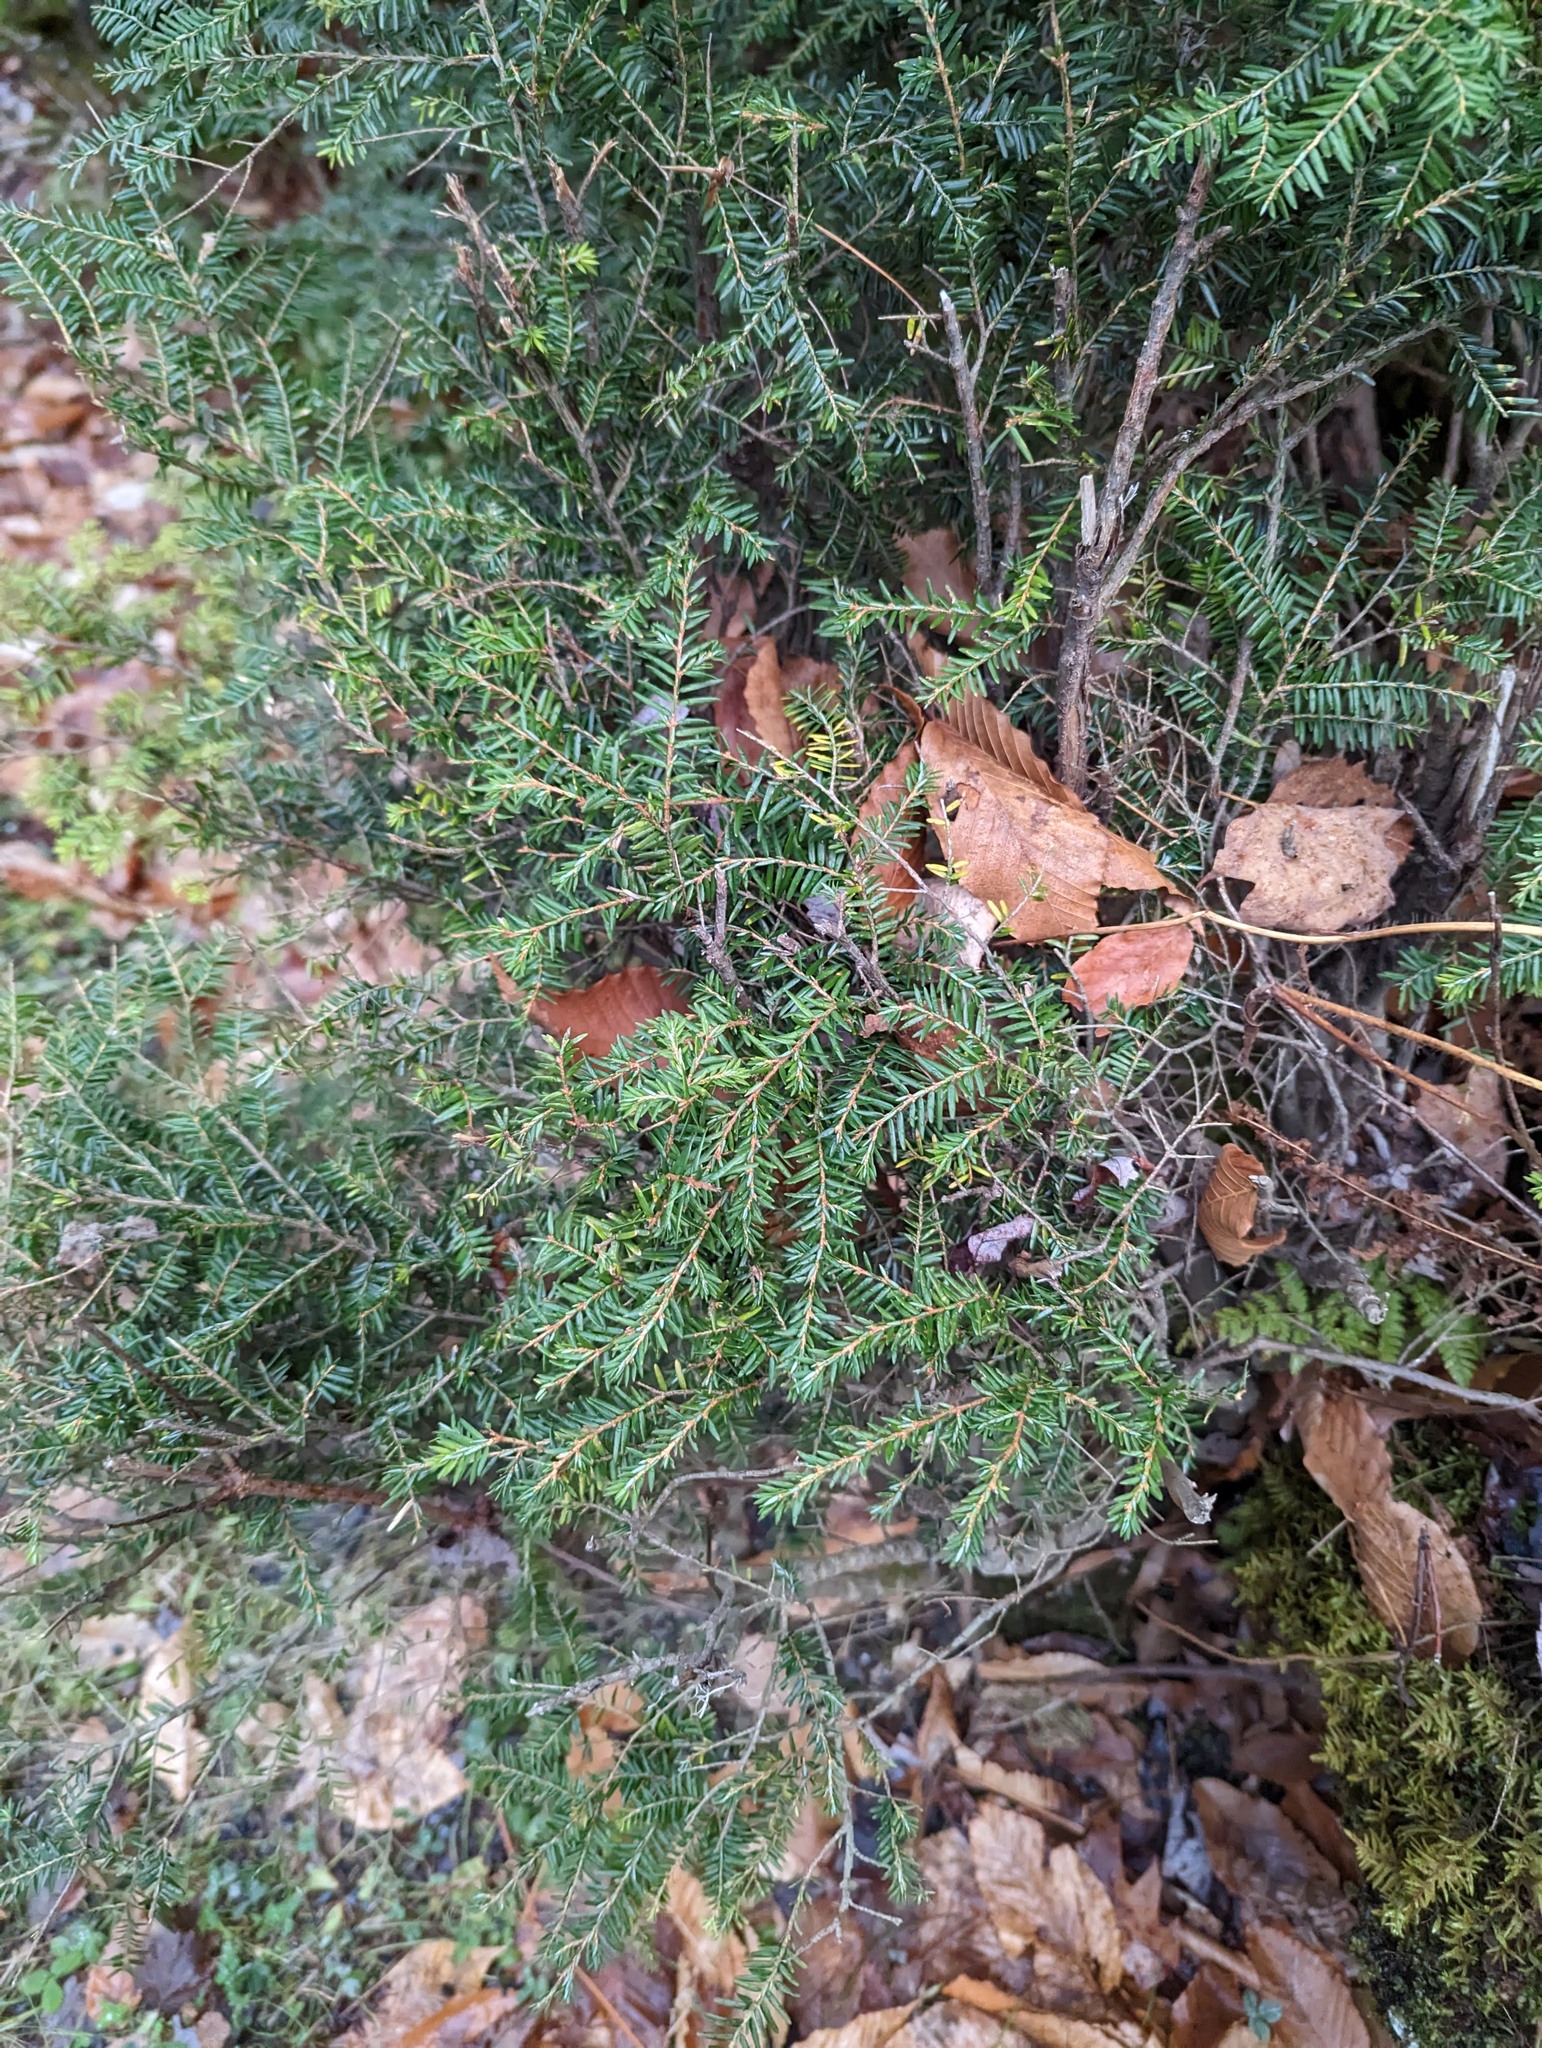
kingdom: Plantae
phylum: Tracheophyta
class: Pinopsida
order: Pinales
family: Pinaceae
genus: Tsuga
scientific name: Tsuga canadensis
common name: Eastern hemlock
